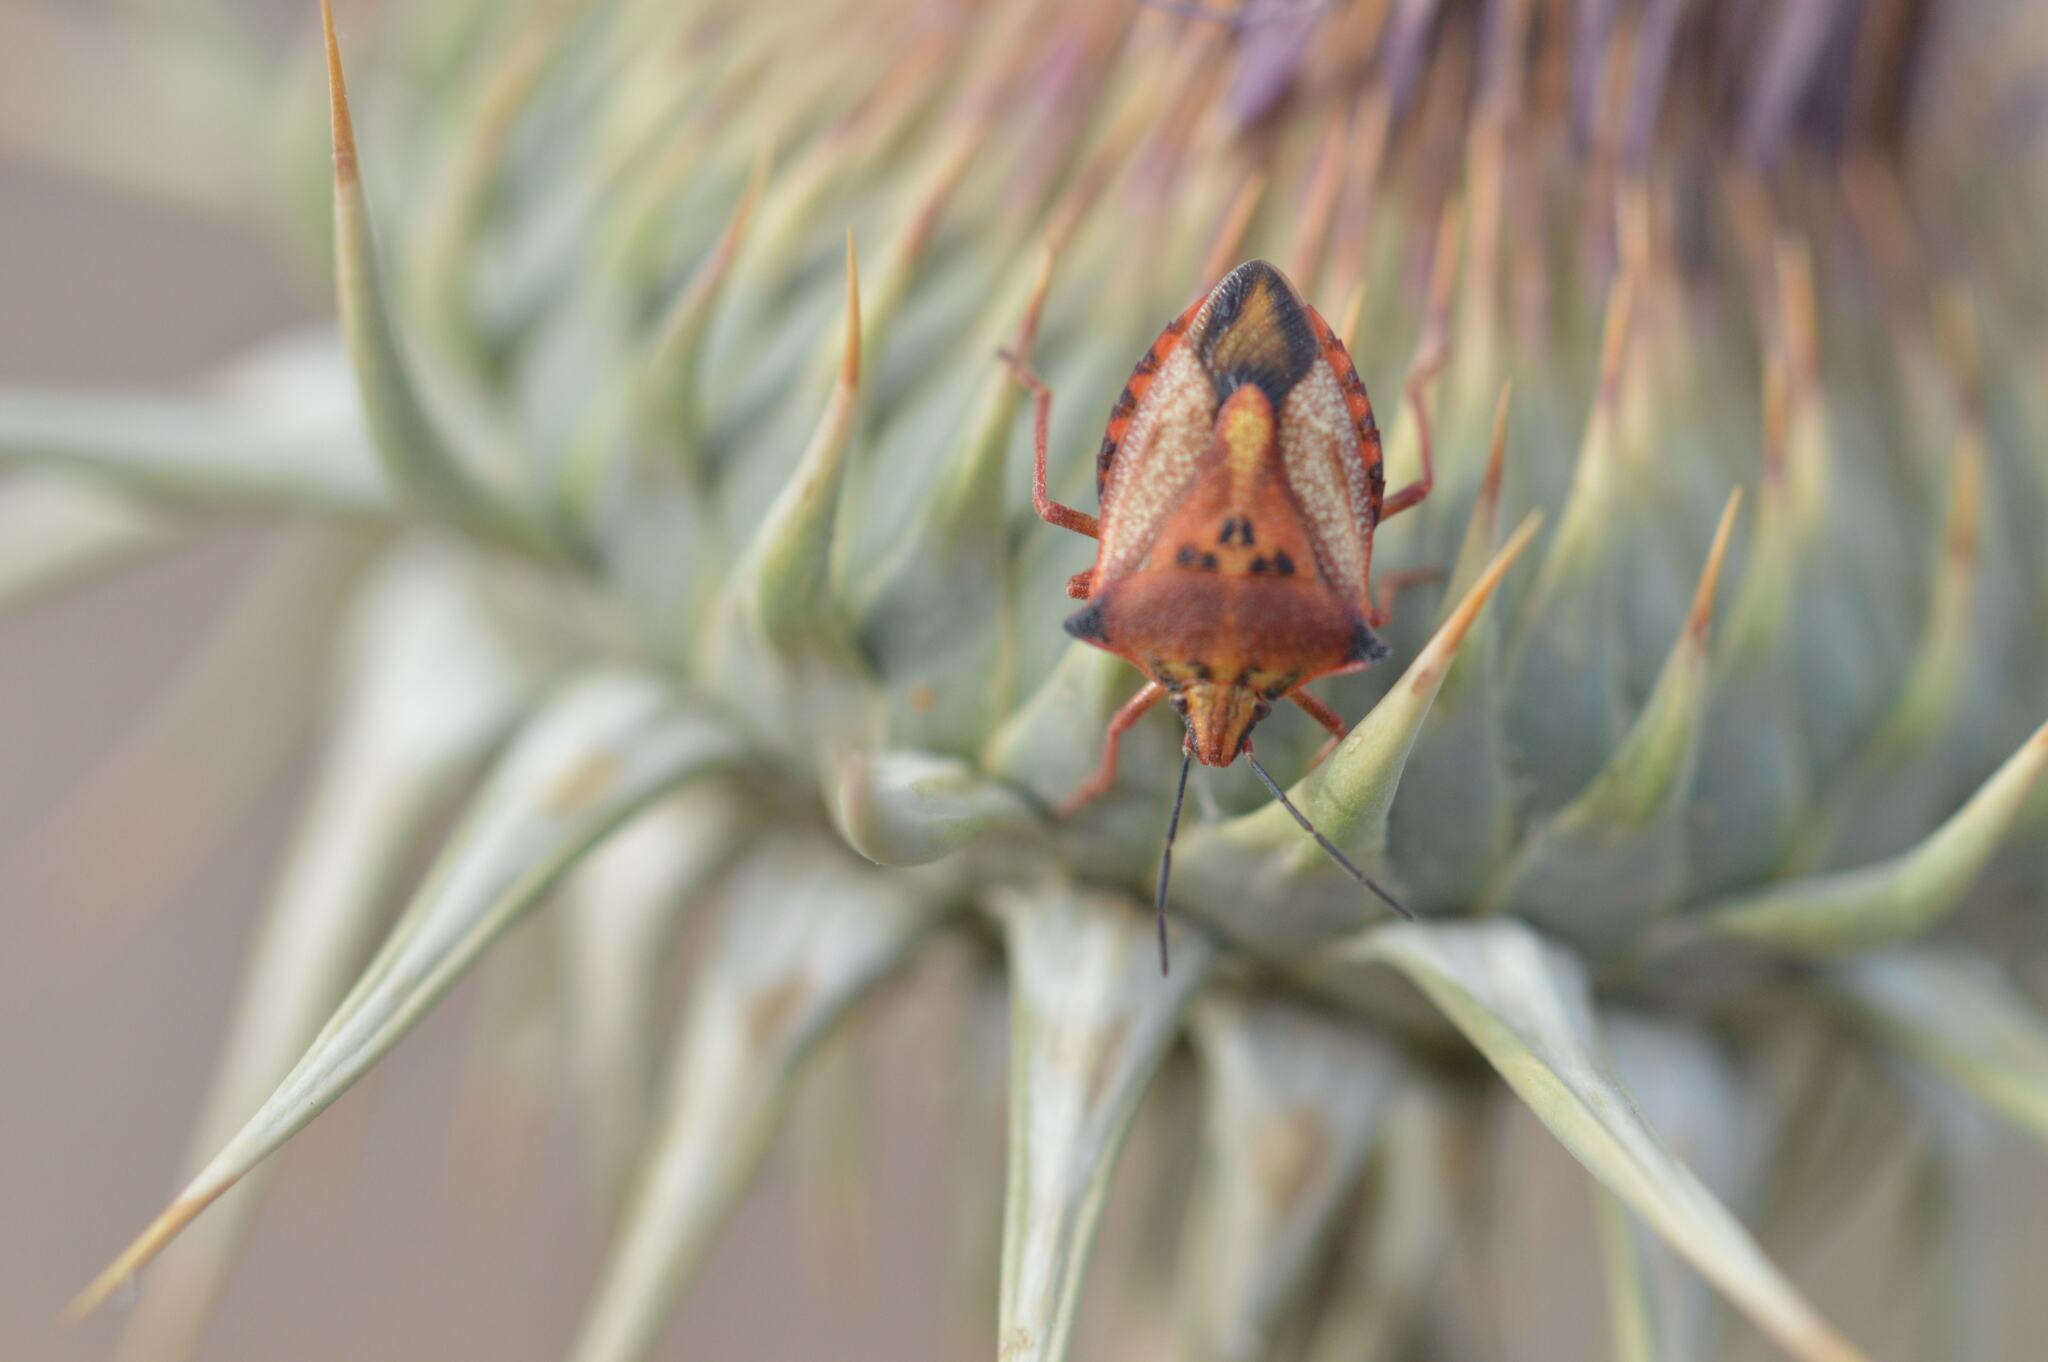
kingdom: Animalia
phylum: Arthropoda
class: Insecta
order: Hemiptera
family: Pentatomidae
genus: Carpocoris
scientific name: Carpocoris mediterraneus
